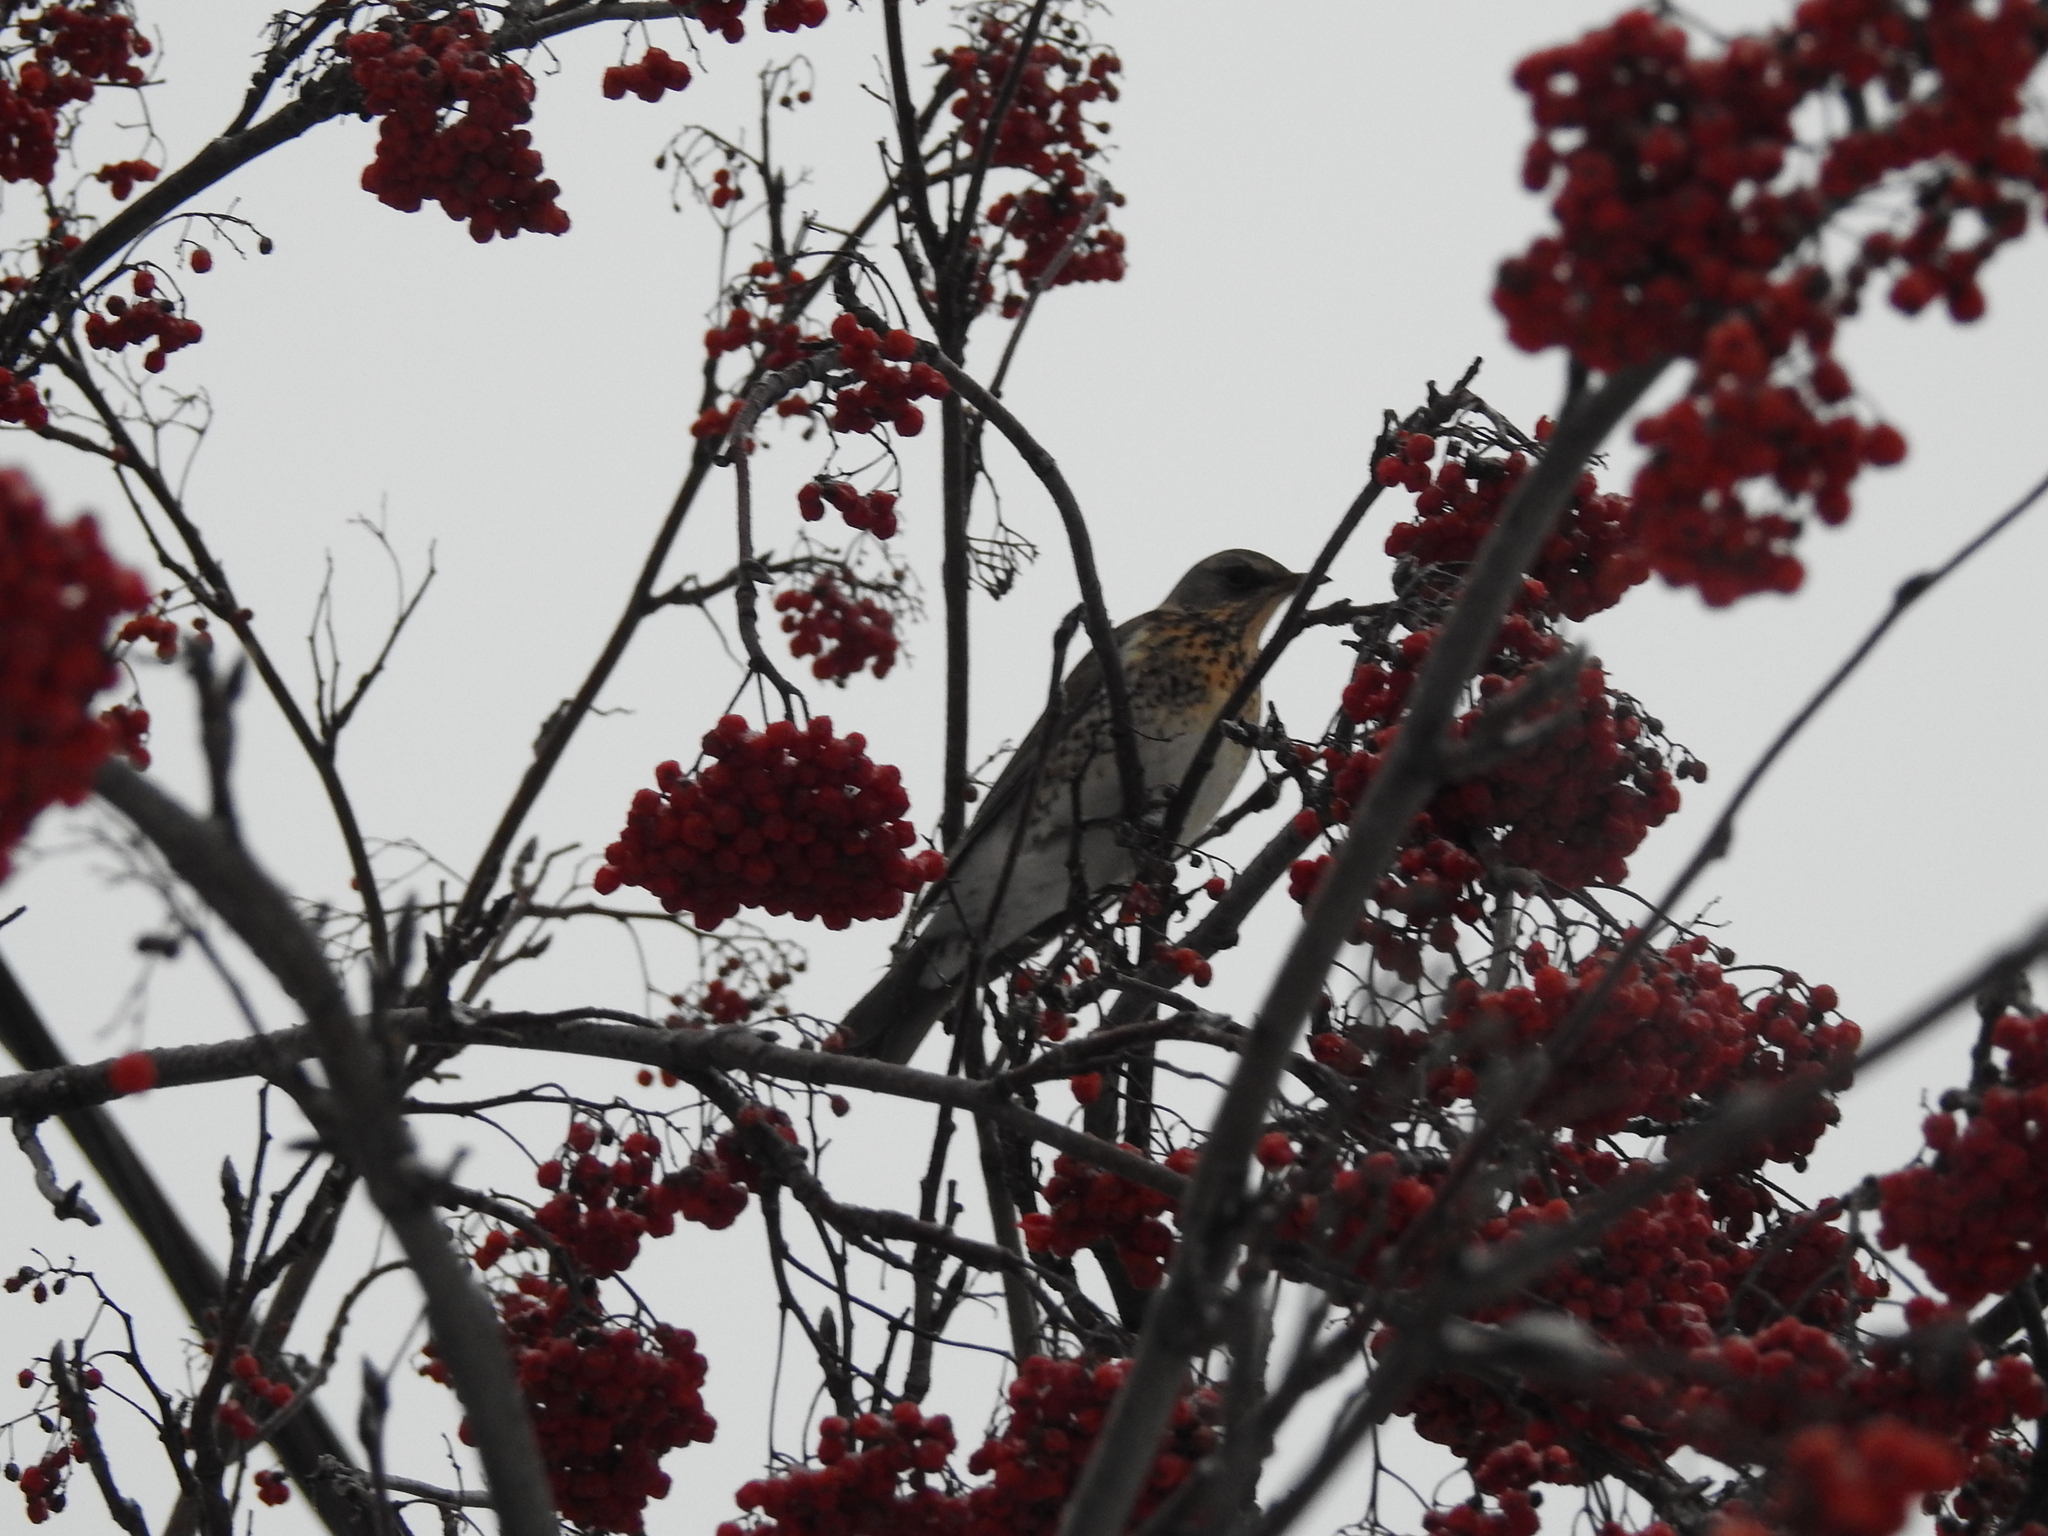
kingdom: Animalia
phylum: Chordata
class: Aves
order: Passeriformes
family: Turdidae
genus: Turdus
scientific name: Turdus pilaris
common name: Fieldfare
